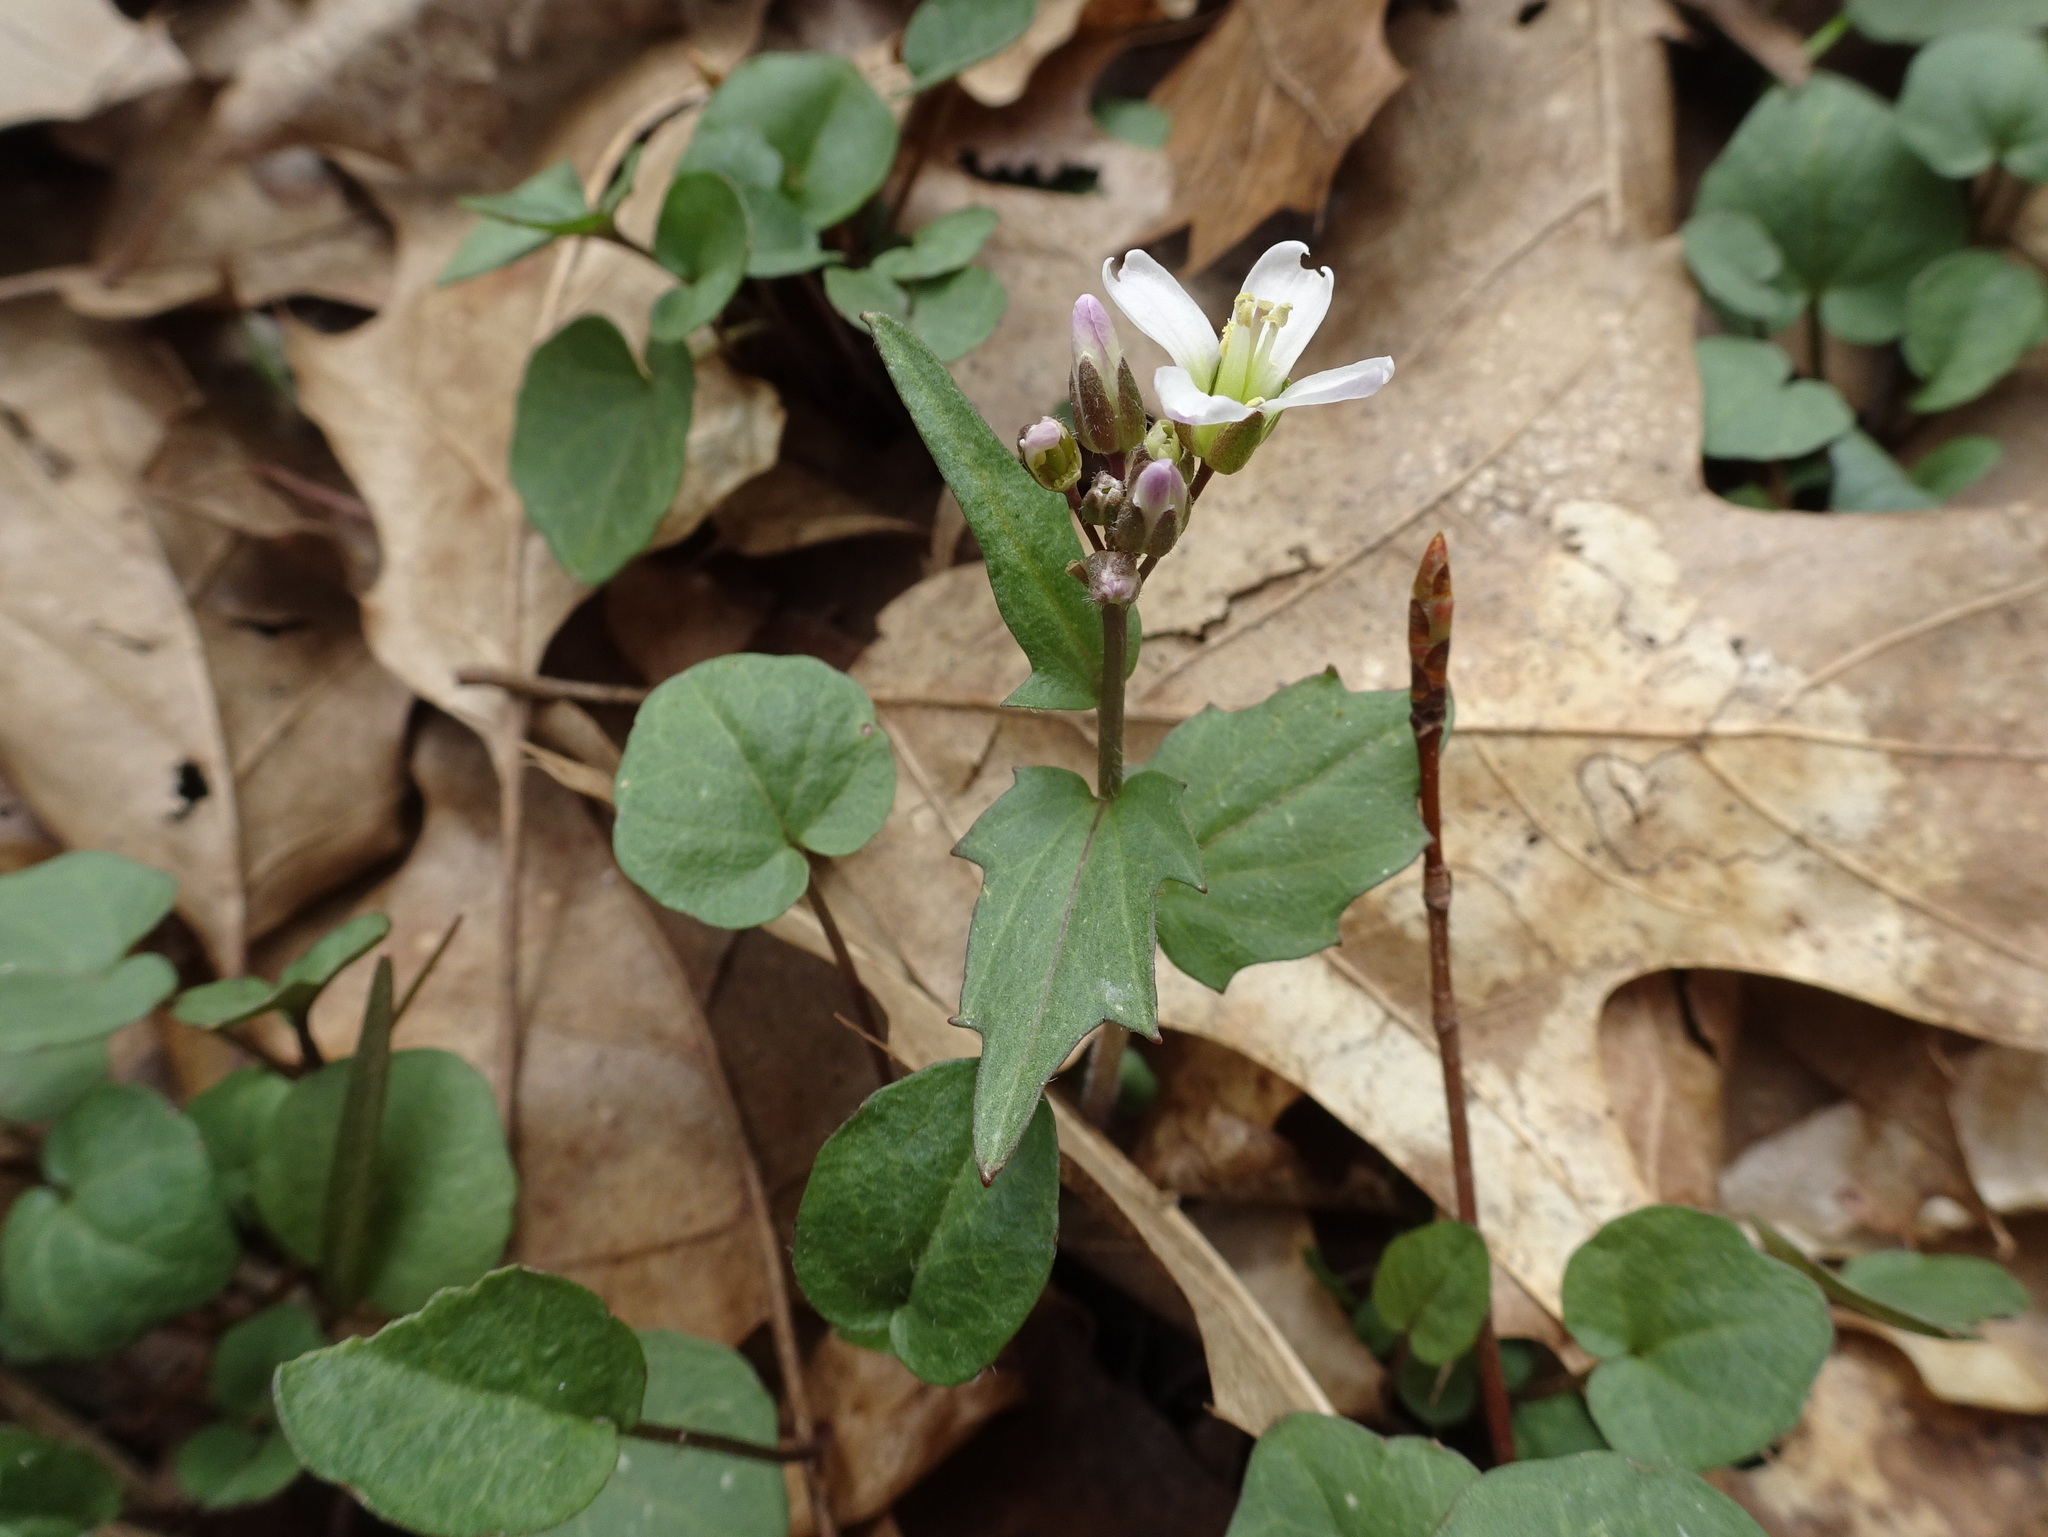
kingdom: Plantae
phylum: Tracheophyta
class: Magnoliopsida
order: Brassicales
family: Brassicaceae
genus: Cardamine
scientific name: Cardamine douglassii
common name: Purple cress
